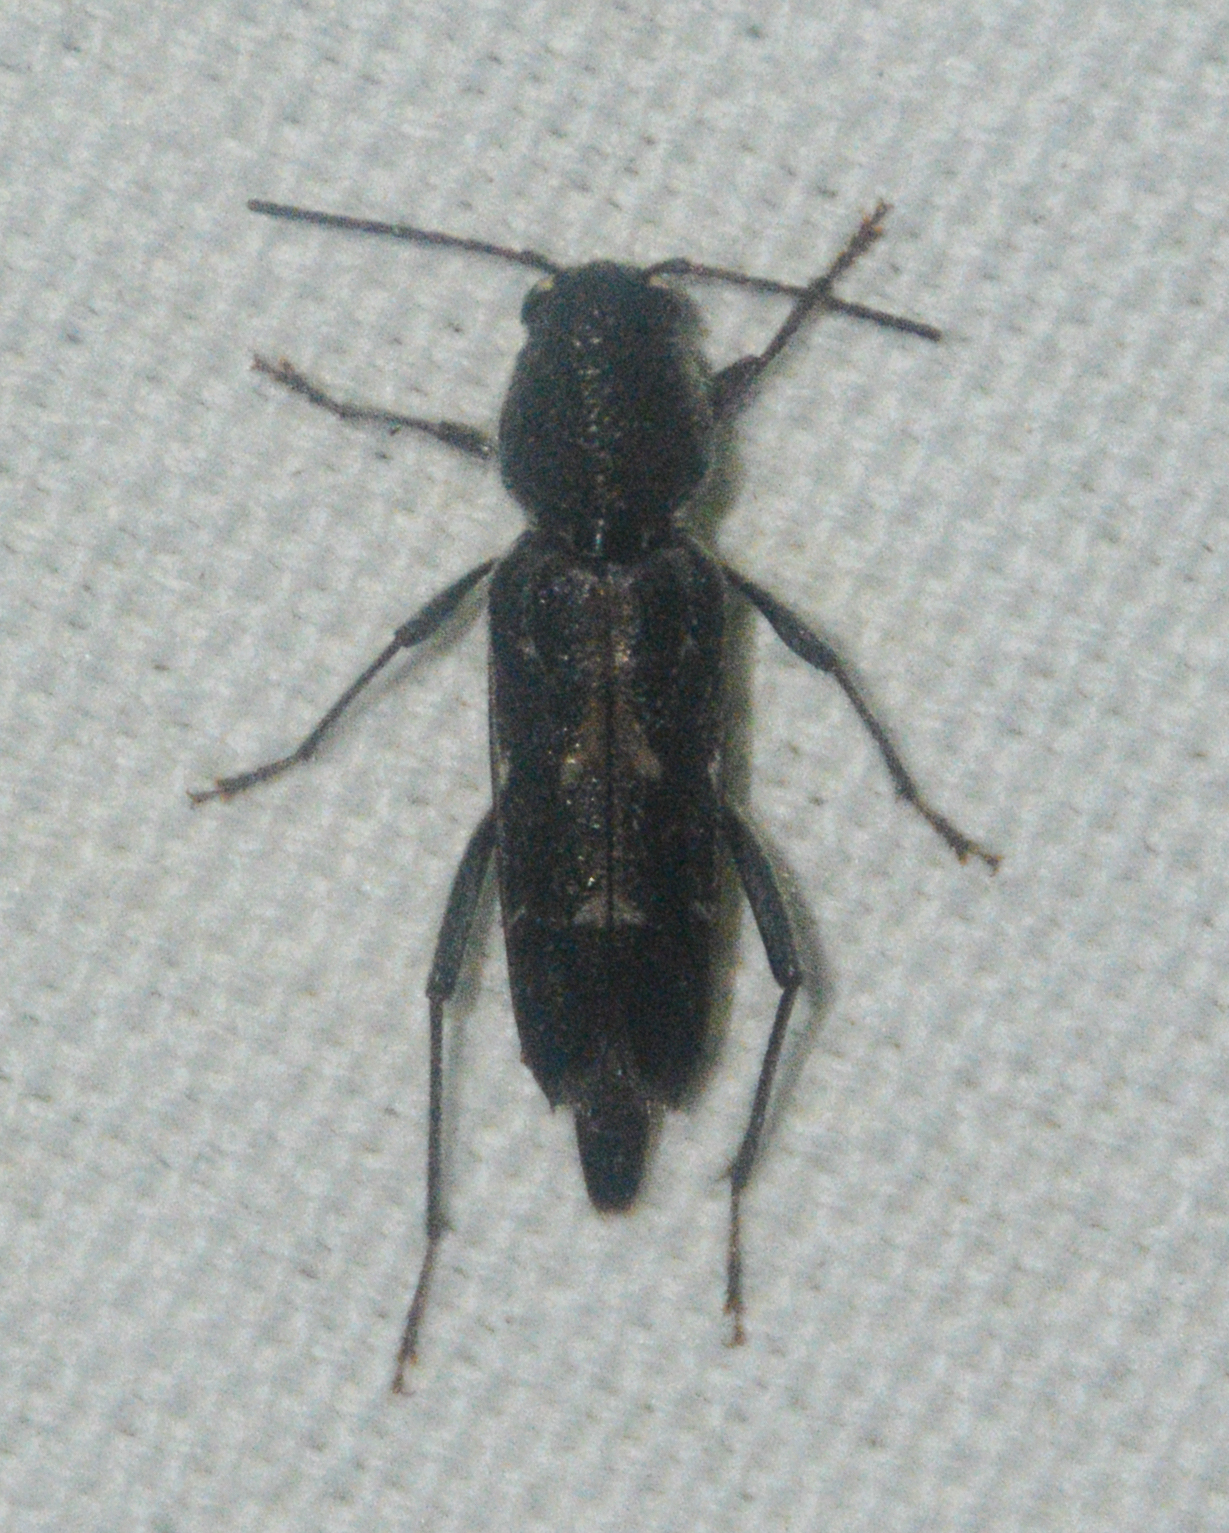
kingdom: Animalia
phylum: Arthropoda
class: Insecta
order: Coleoptera
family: Cerambycidae
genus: Xylotrechus
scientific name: Xylotrechus sagittatus
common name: Arrowhead borer
